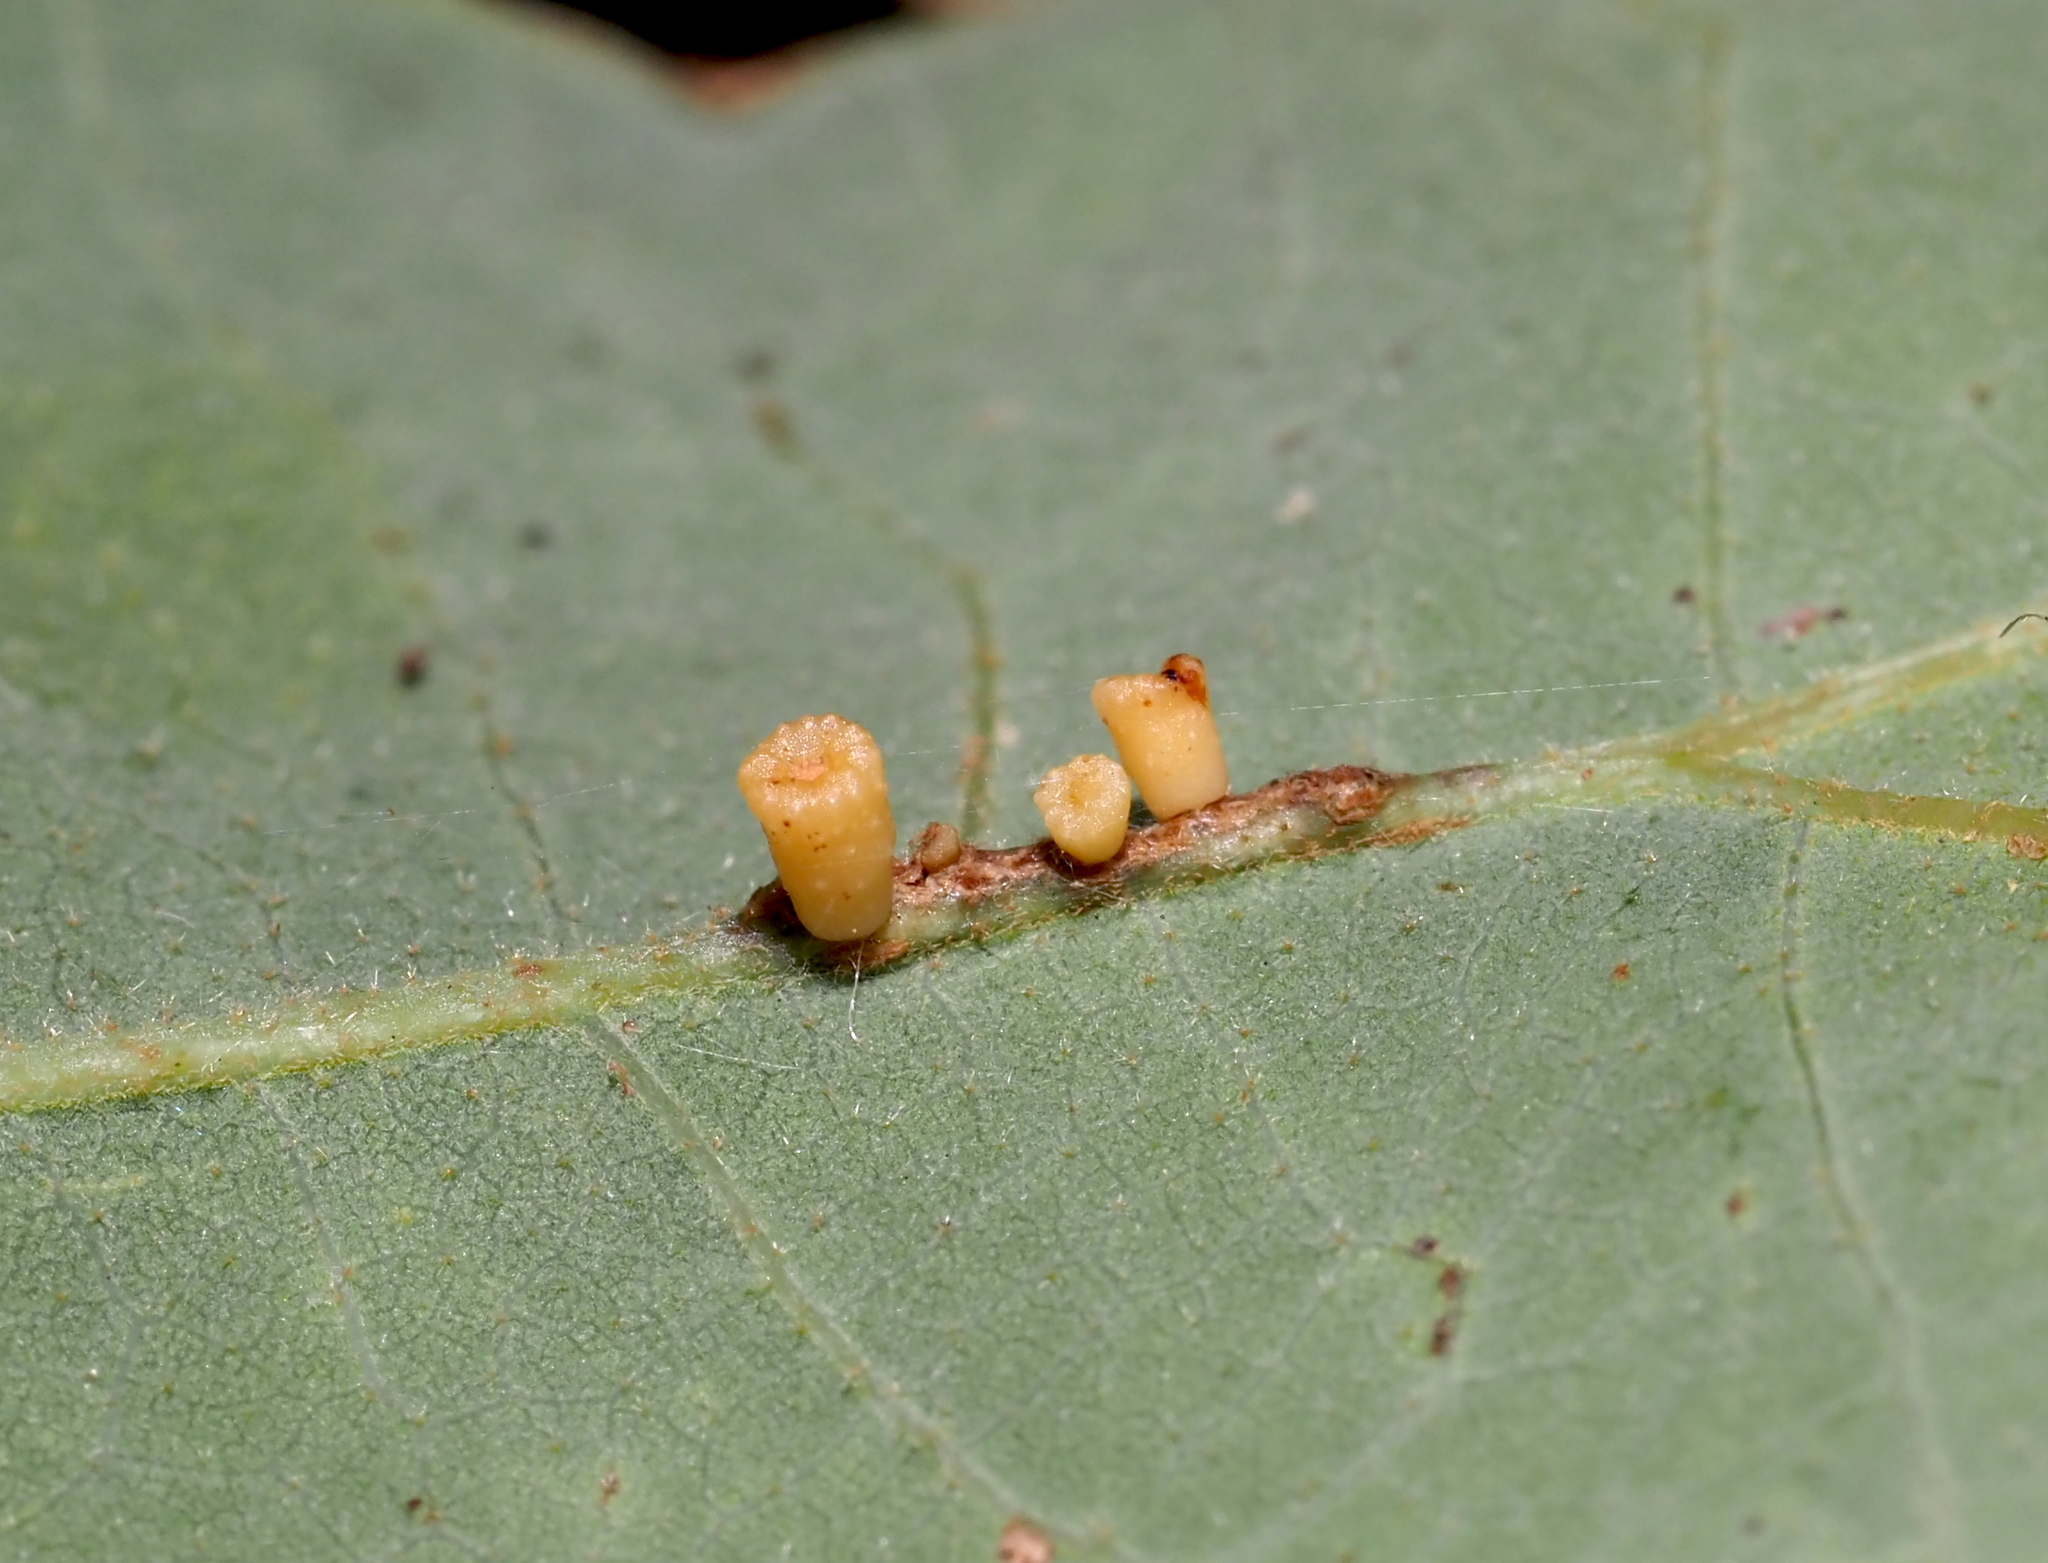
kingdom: Animalia
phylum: Arthropoda
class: Insecta
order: Hymenoptera
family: Cynipidae
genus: Andricus
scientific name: Andricus
